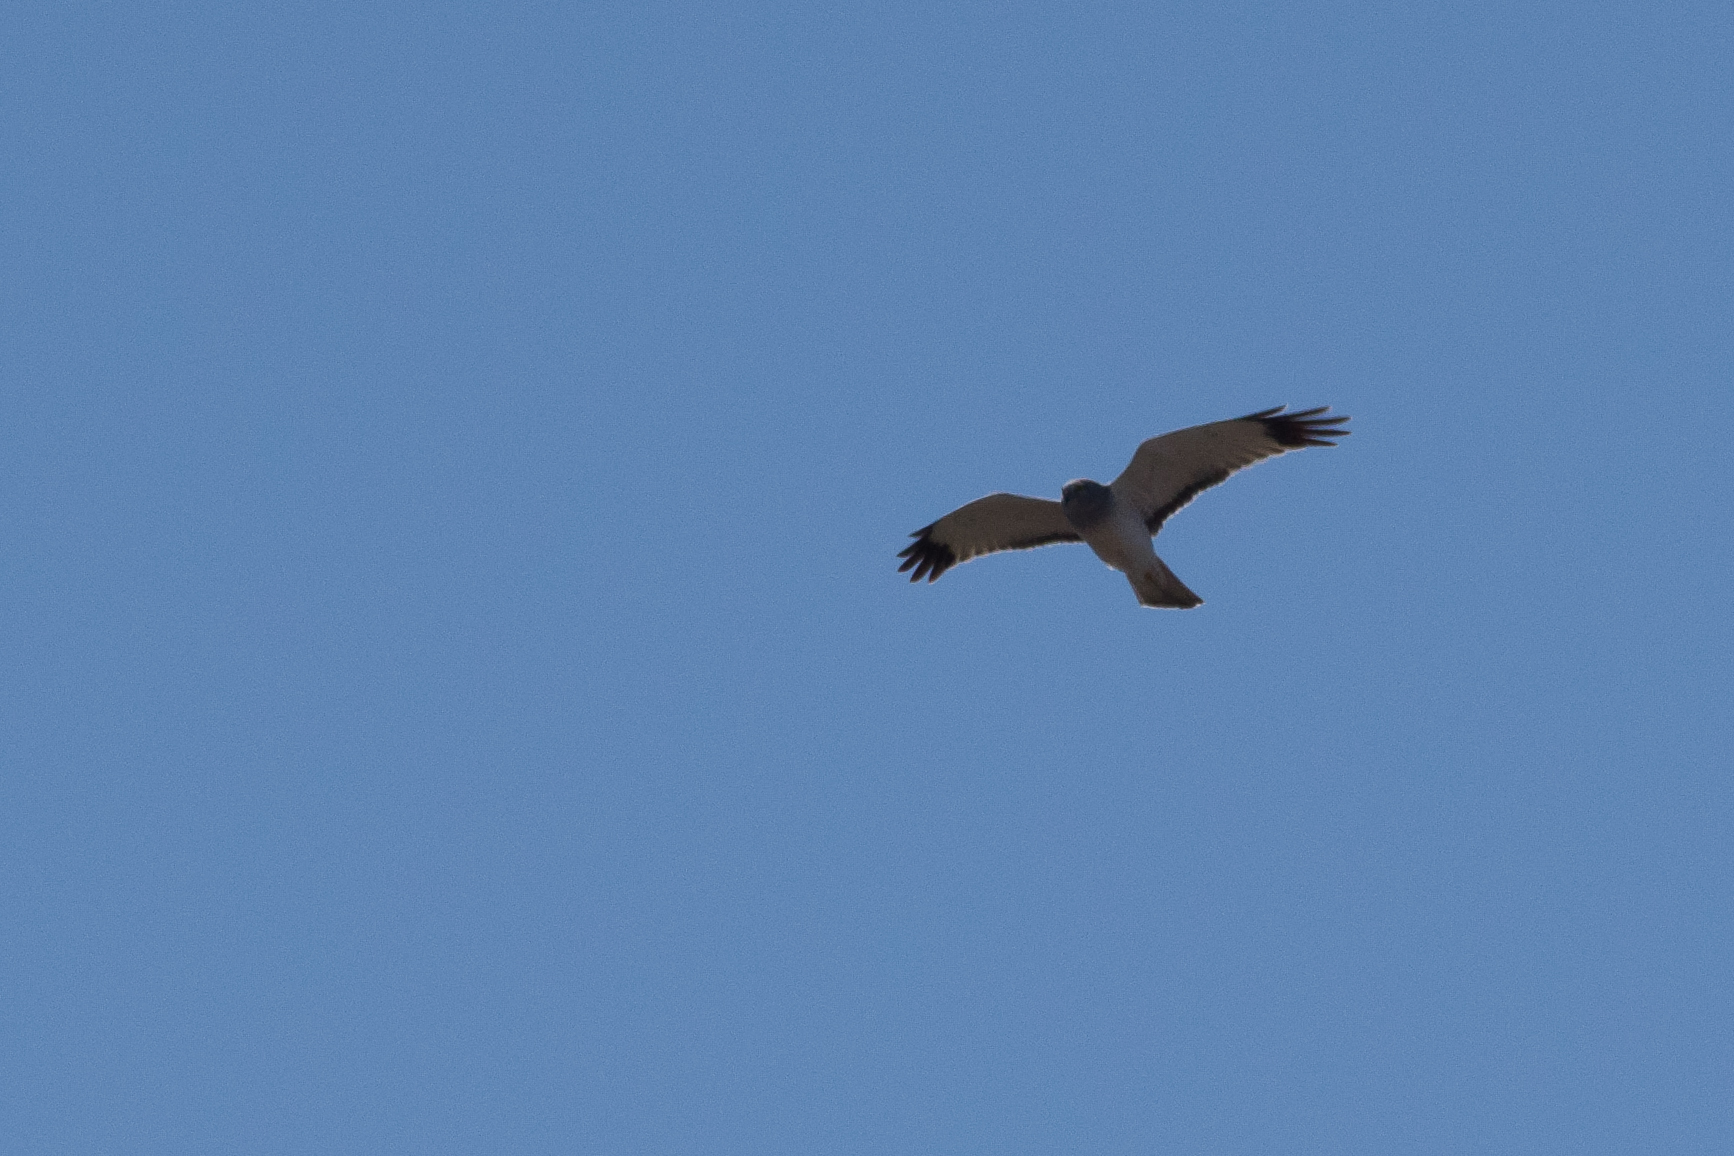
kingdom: Animalia
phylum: Chordata
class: Aves
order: Accipitriformes
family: Accipitridae
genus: Circus
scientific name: Circus cyaneus
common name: Hen harrier
